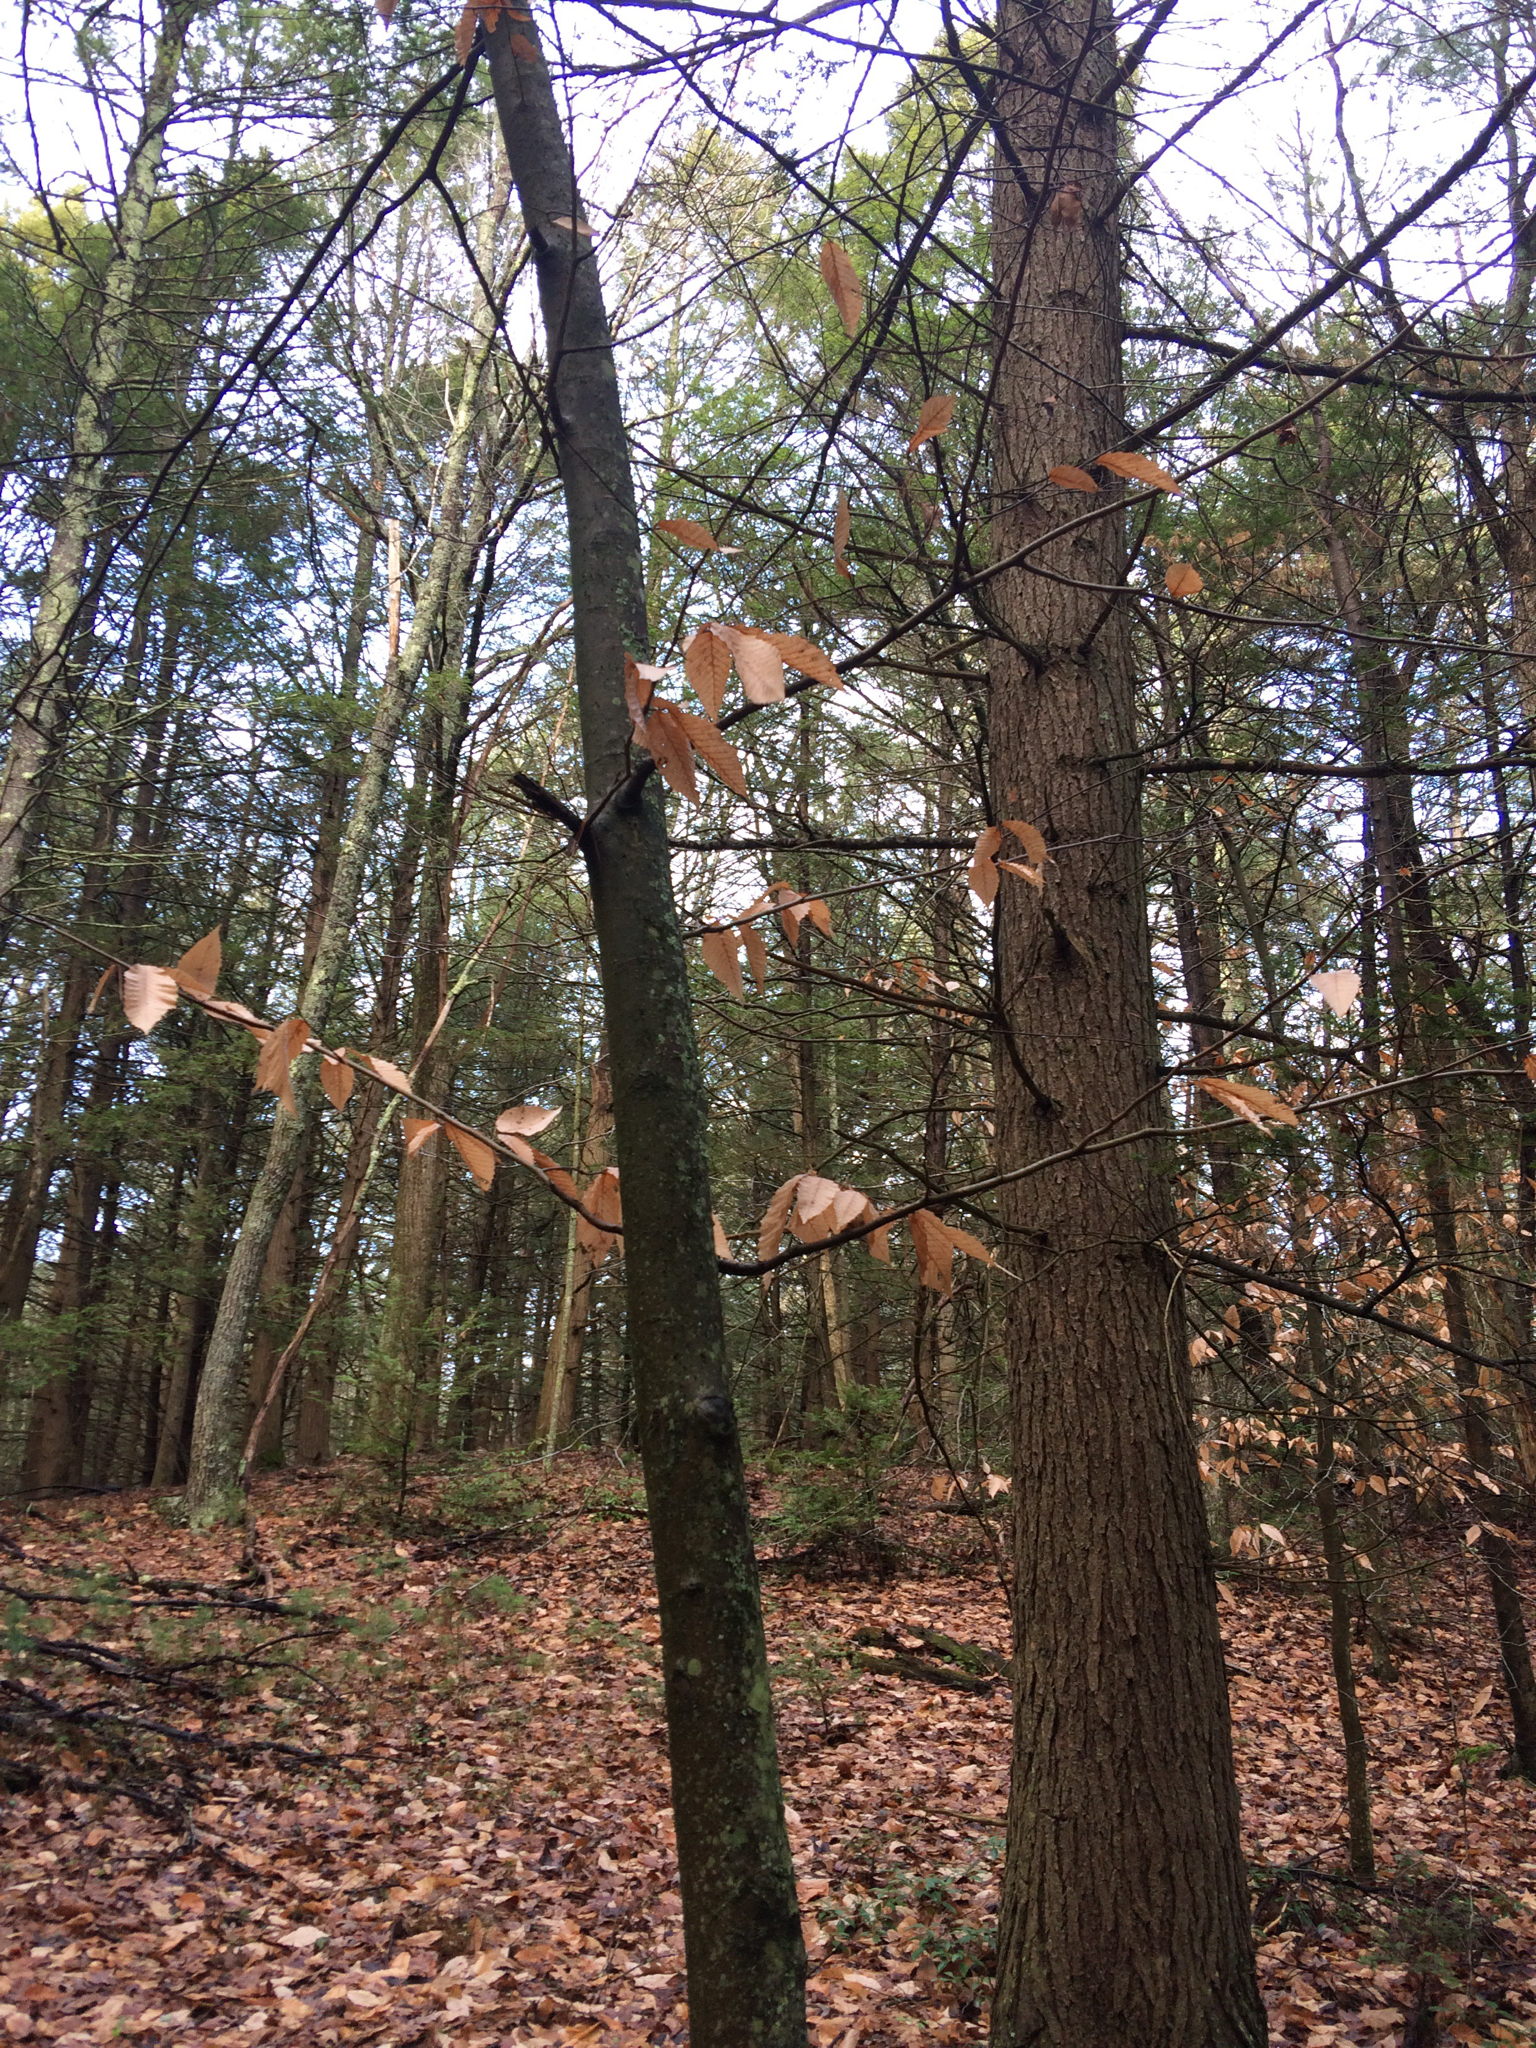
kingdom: Plantae
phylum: Tracheophyta
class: Magnoliopsida
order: Fagales
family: Fagaceae
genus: Fagus
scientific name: Fagus grandifolia
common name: American beech
